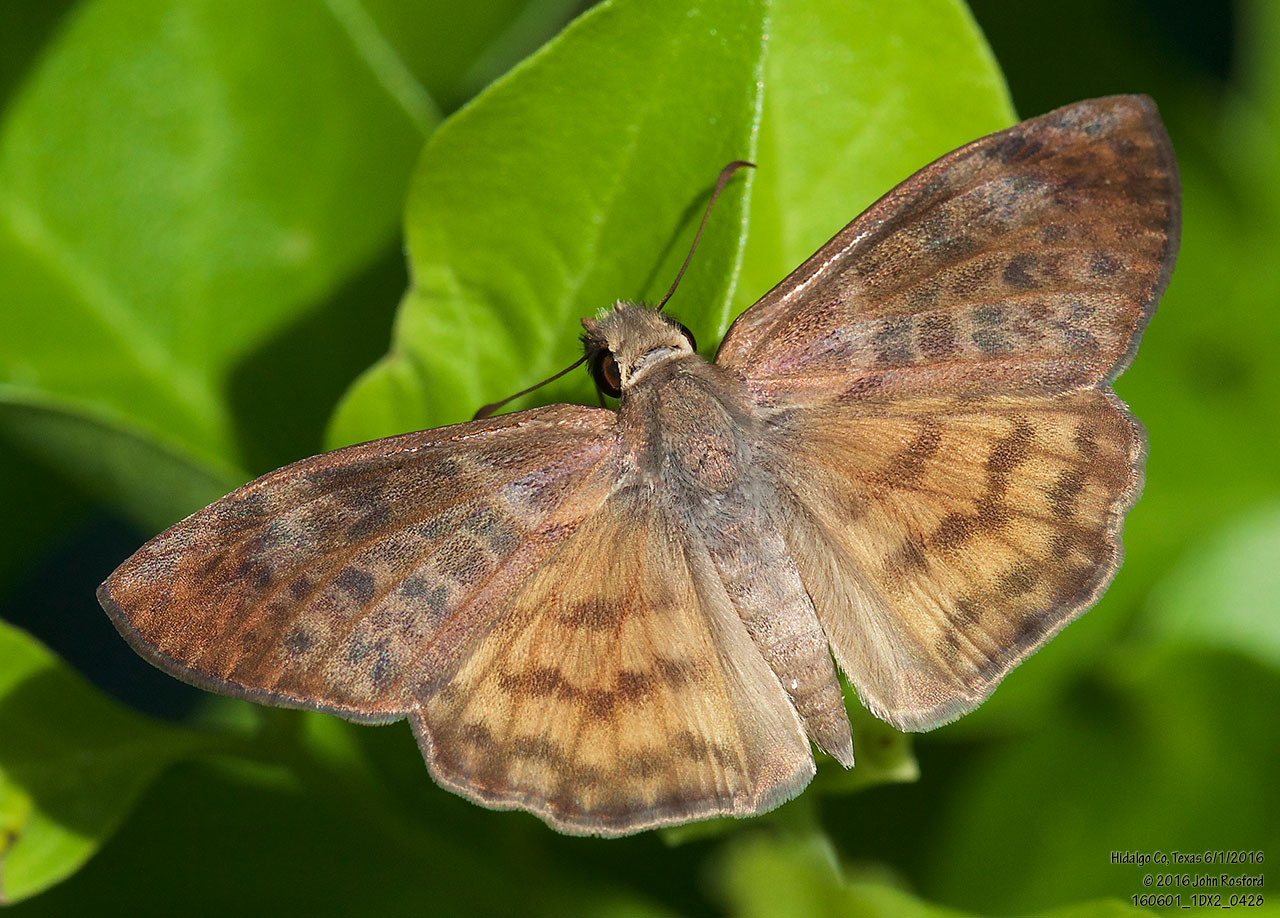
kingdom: Animalia
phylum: Arthropoda
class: Insecta
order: Lepidoptera
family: Hesperiidae
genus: Timochares
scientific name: Timochares ruptifasciata
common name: Brown-banded skipper
